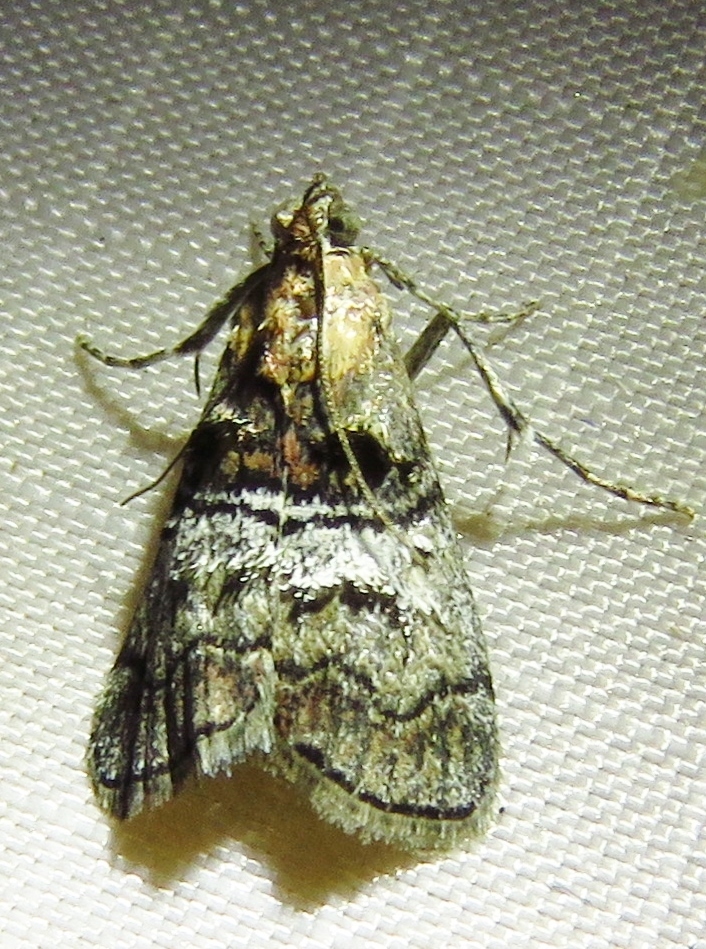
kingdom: Animalia
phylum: Arthropoda
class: Insecta
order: Lepidoptera
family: Pyralidae
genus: Pococera
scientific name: Pococera maritimalis
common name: Gray-banded pococera moth
